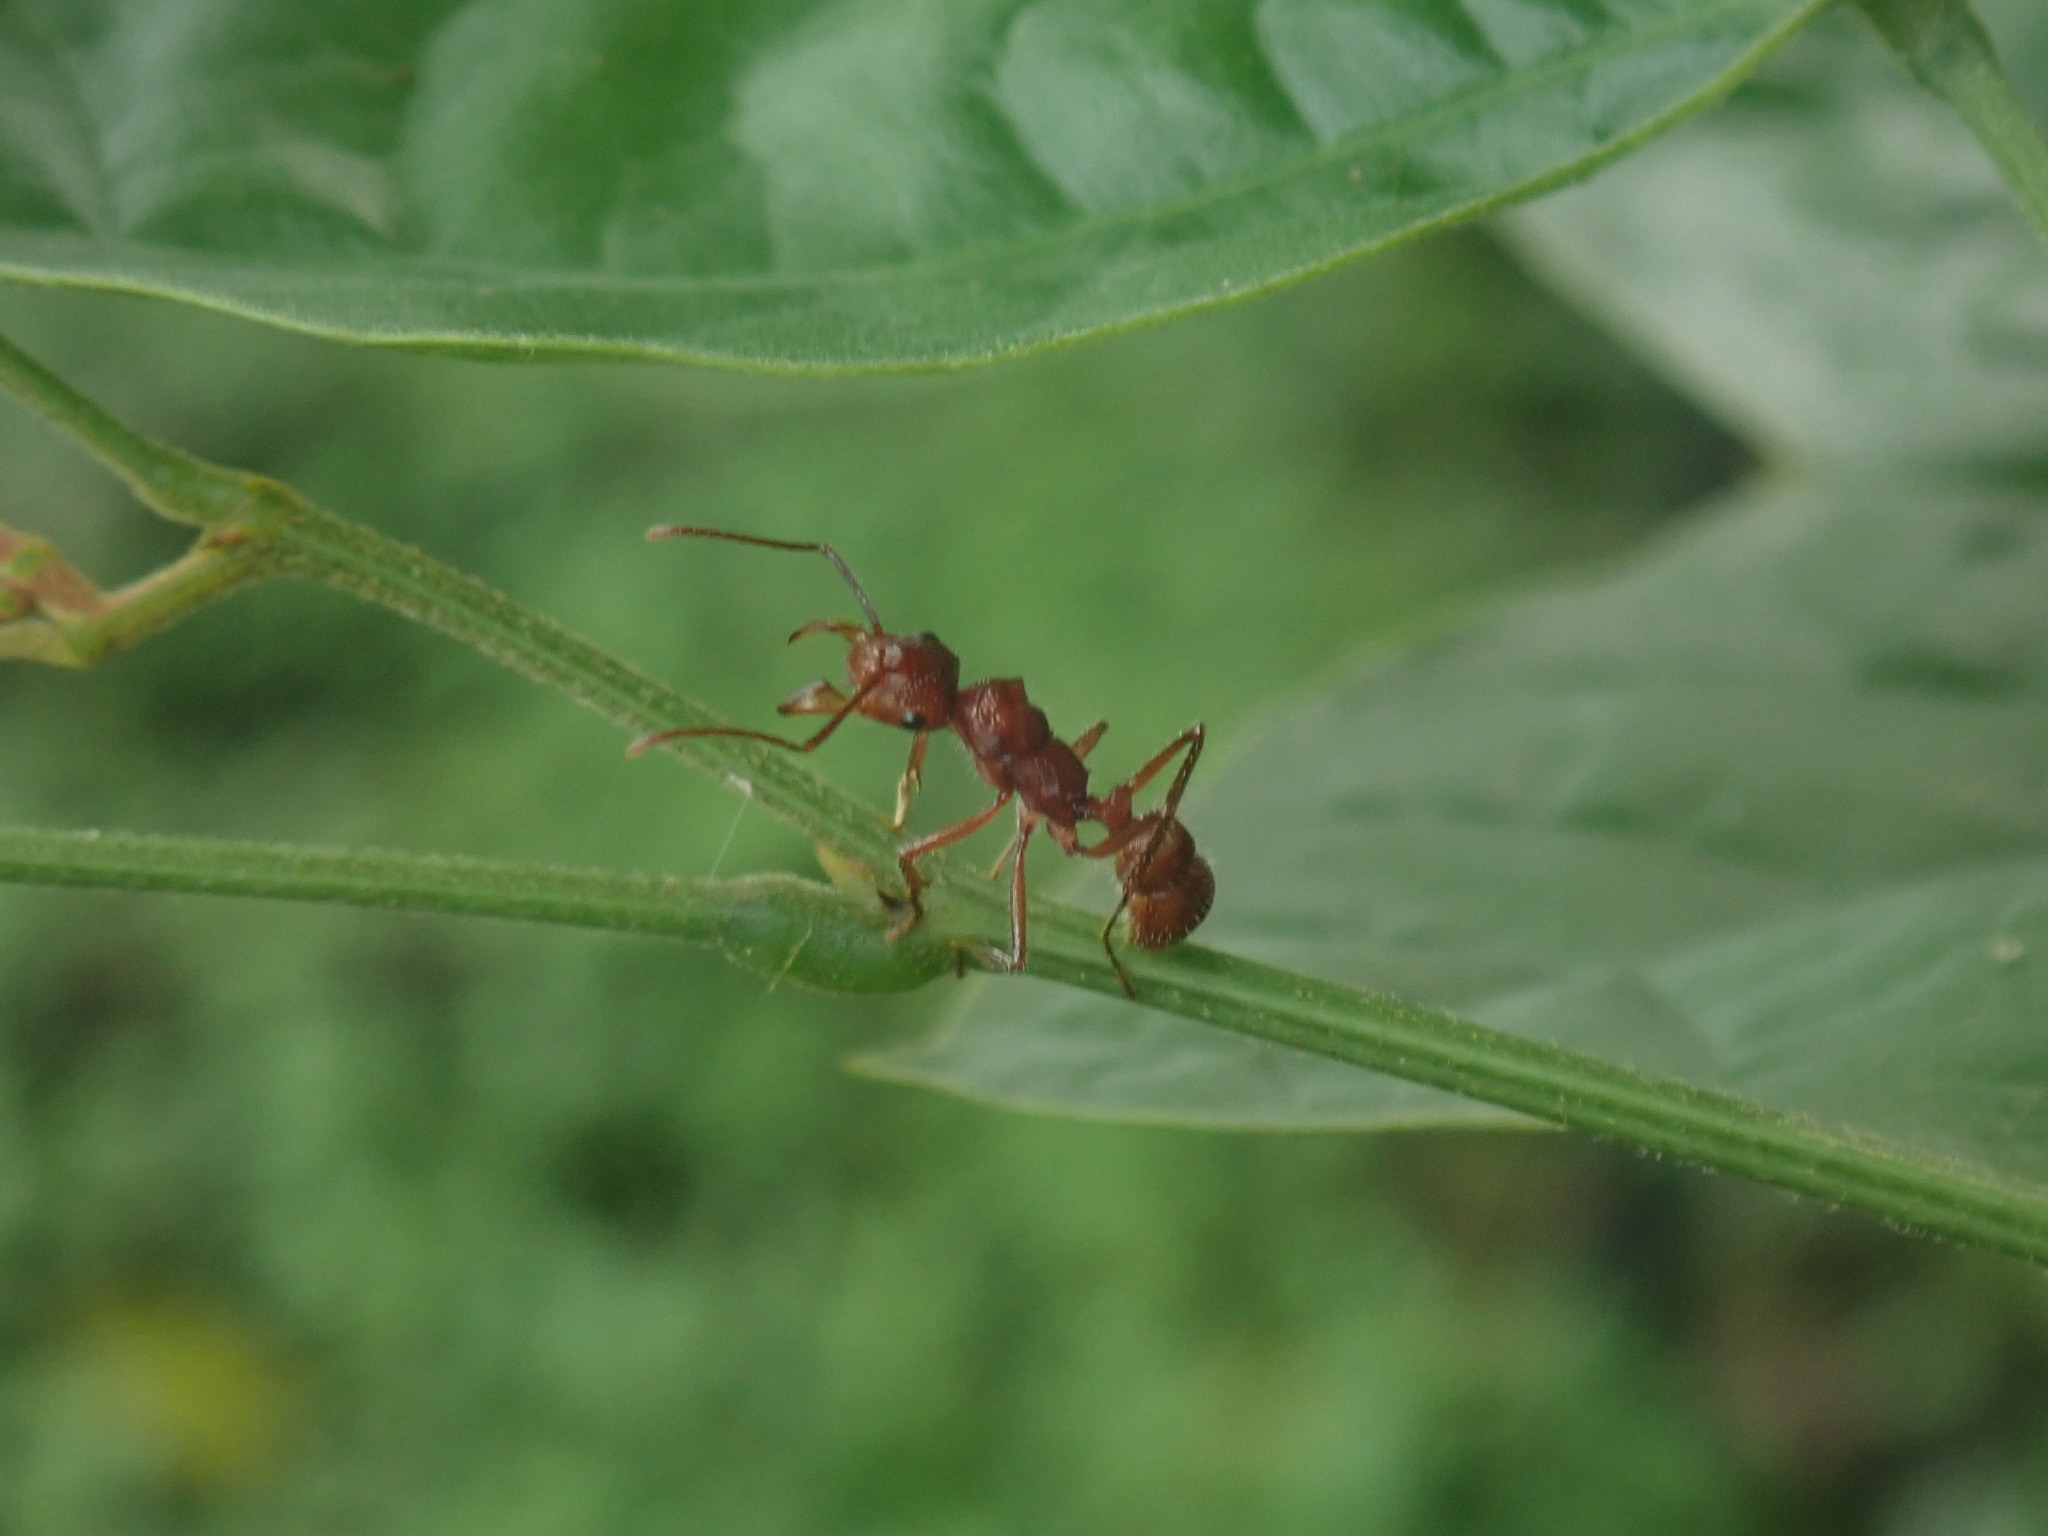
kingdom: Animalia
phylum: Arthropoda
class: Insecta
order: Hymenoptera
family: Formicidae
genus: Ectatomma
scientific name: Ectatomma tuberculatum
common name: Ant
